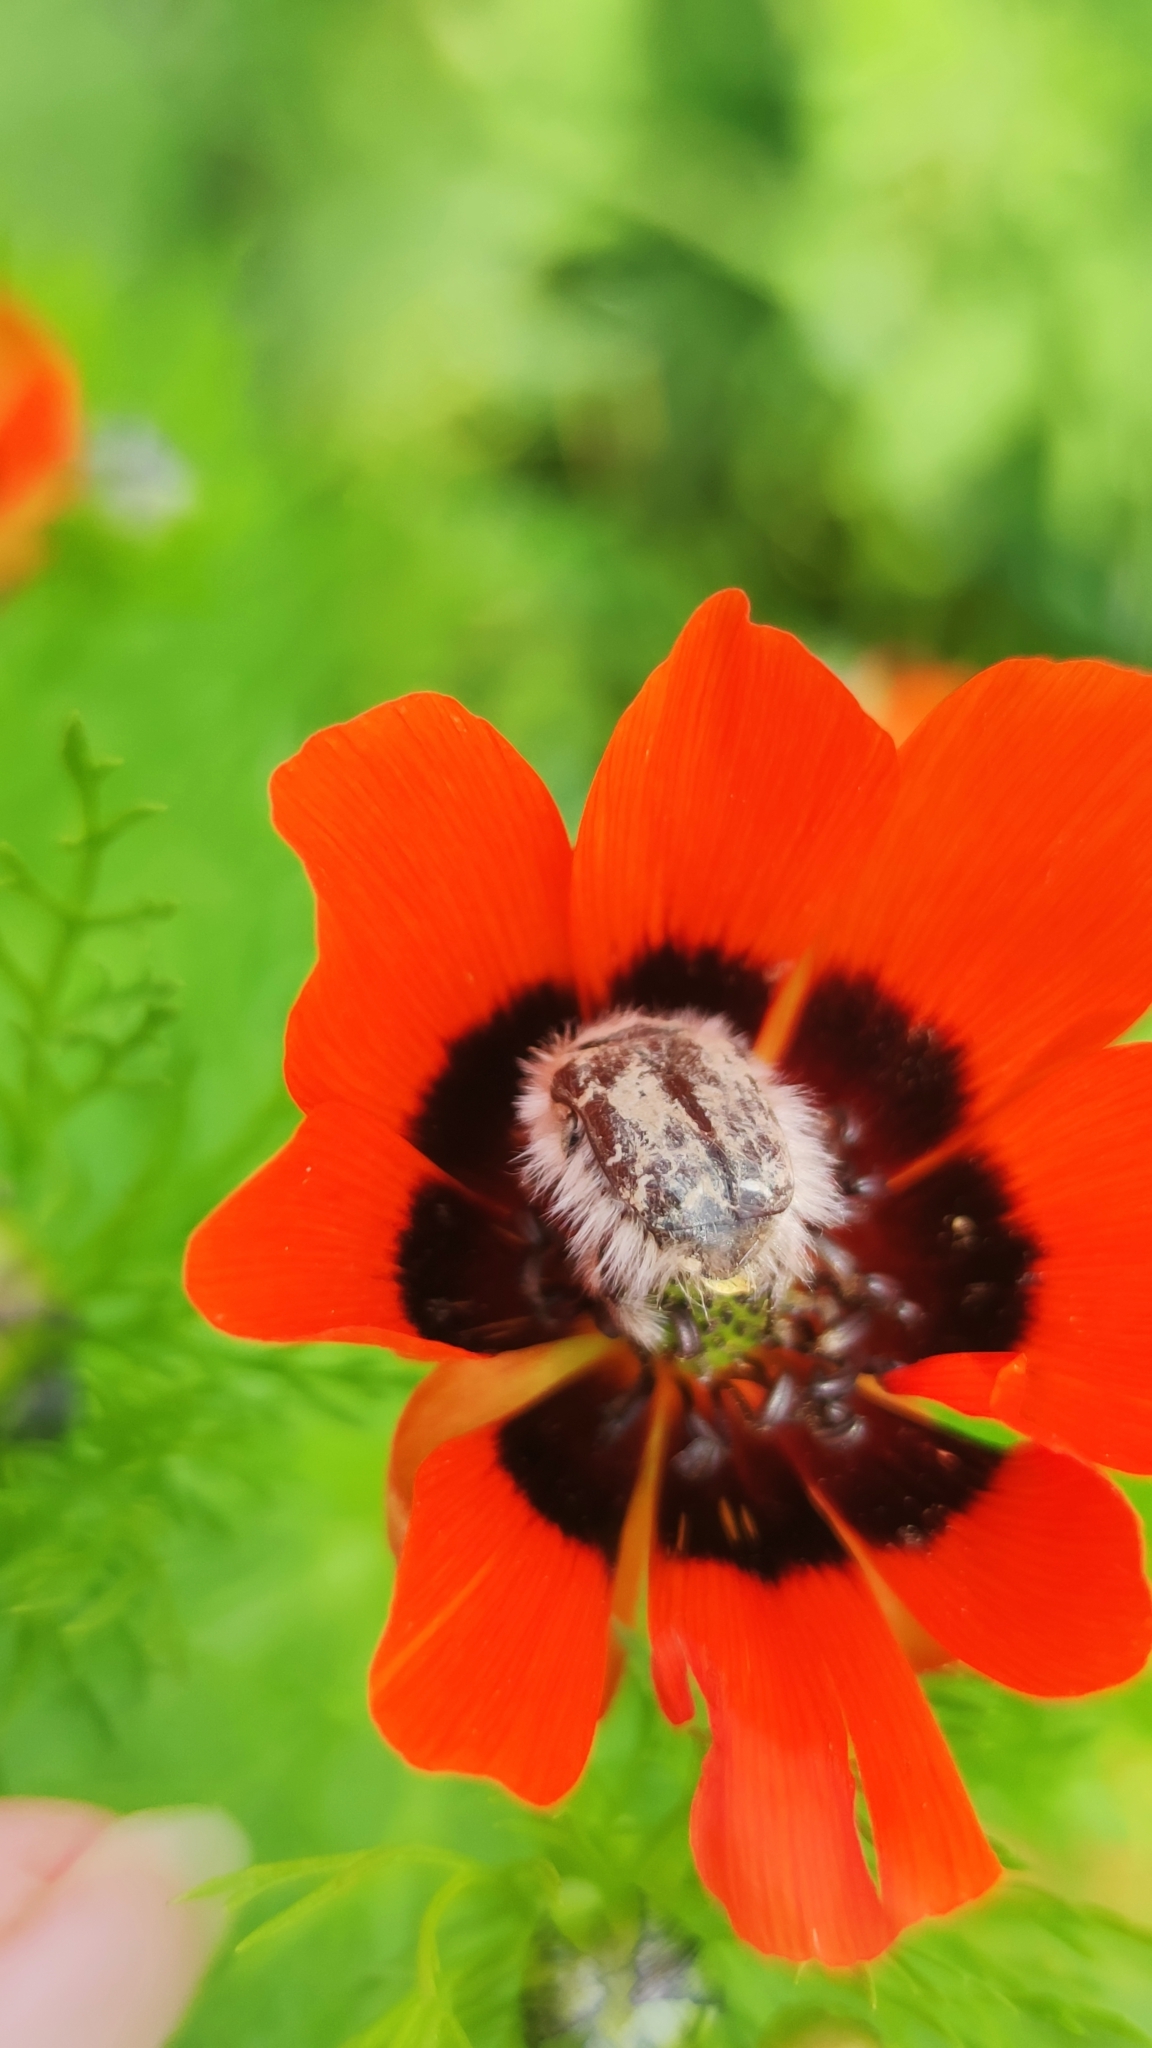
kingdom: Animalia
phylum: Arthropoda
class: Insecta
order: Coleoptera
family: Scarabaeidae
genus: Tropinota
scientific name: Tropinota hirta
